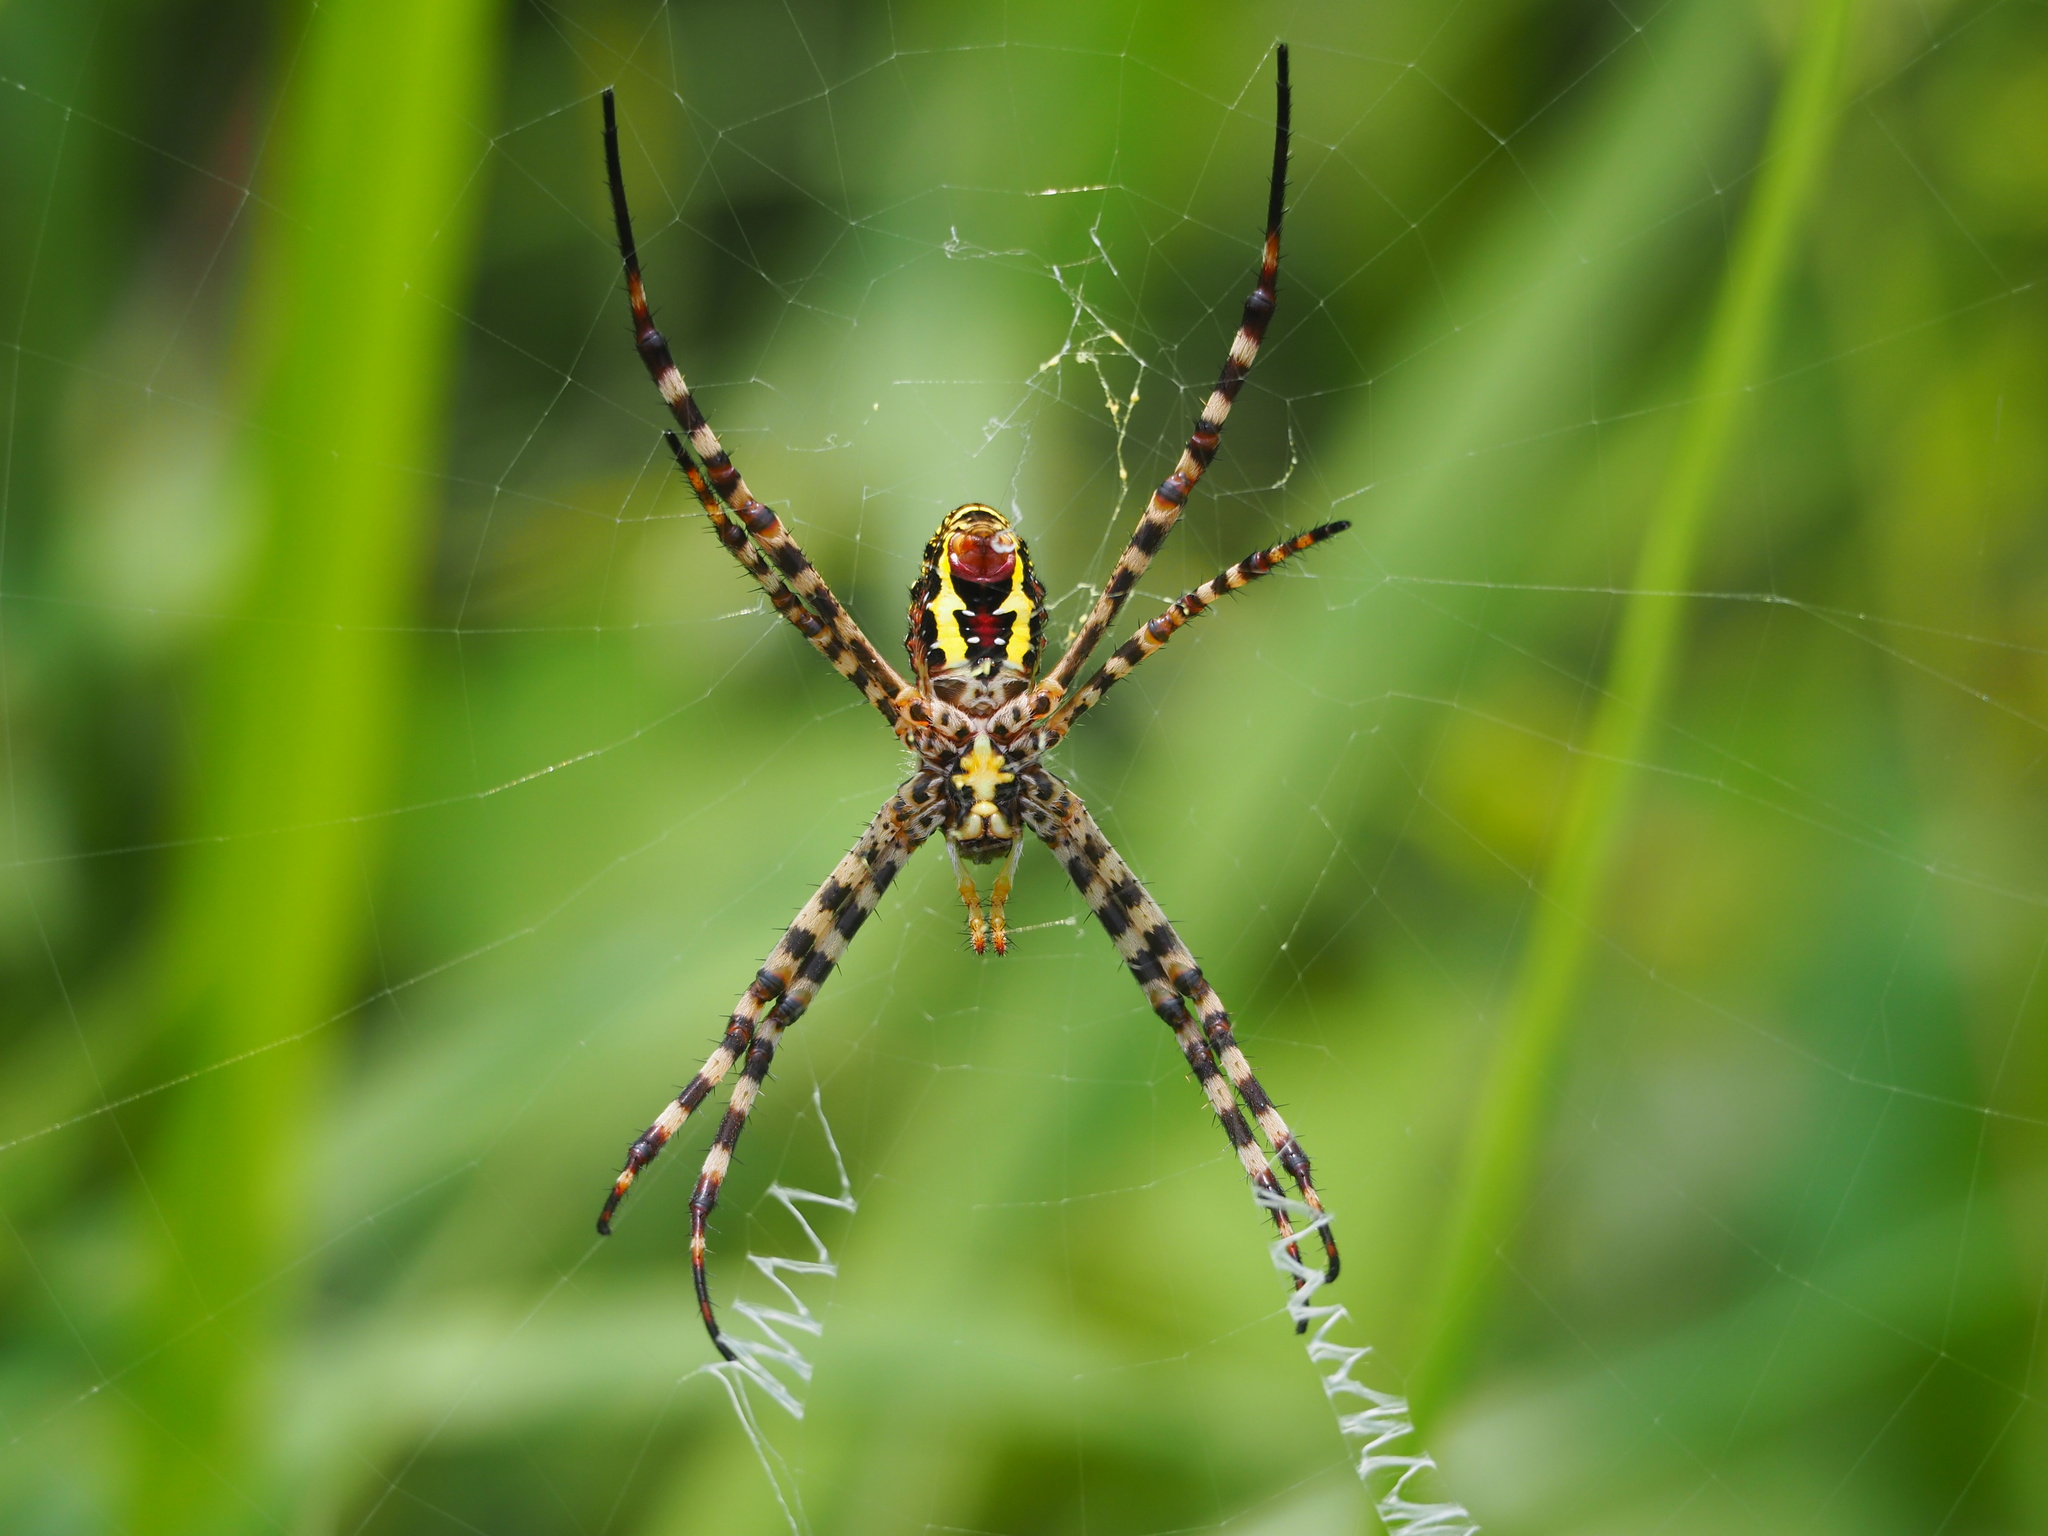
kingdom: Animalia
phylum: Arthropoda
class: Arachnida
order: Araneae
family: Araneidae
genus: Argiope
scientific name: Argiope aemula
